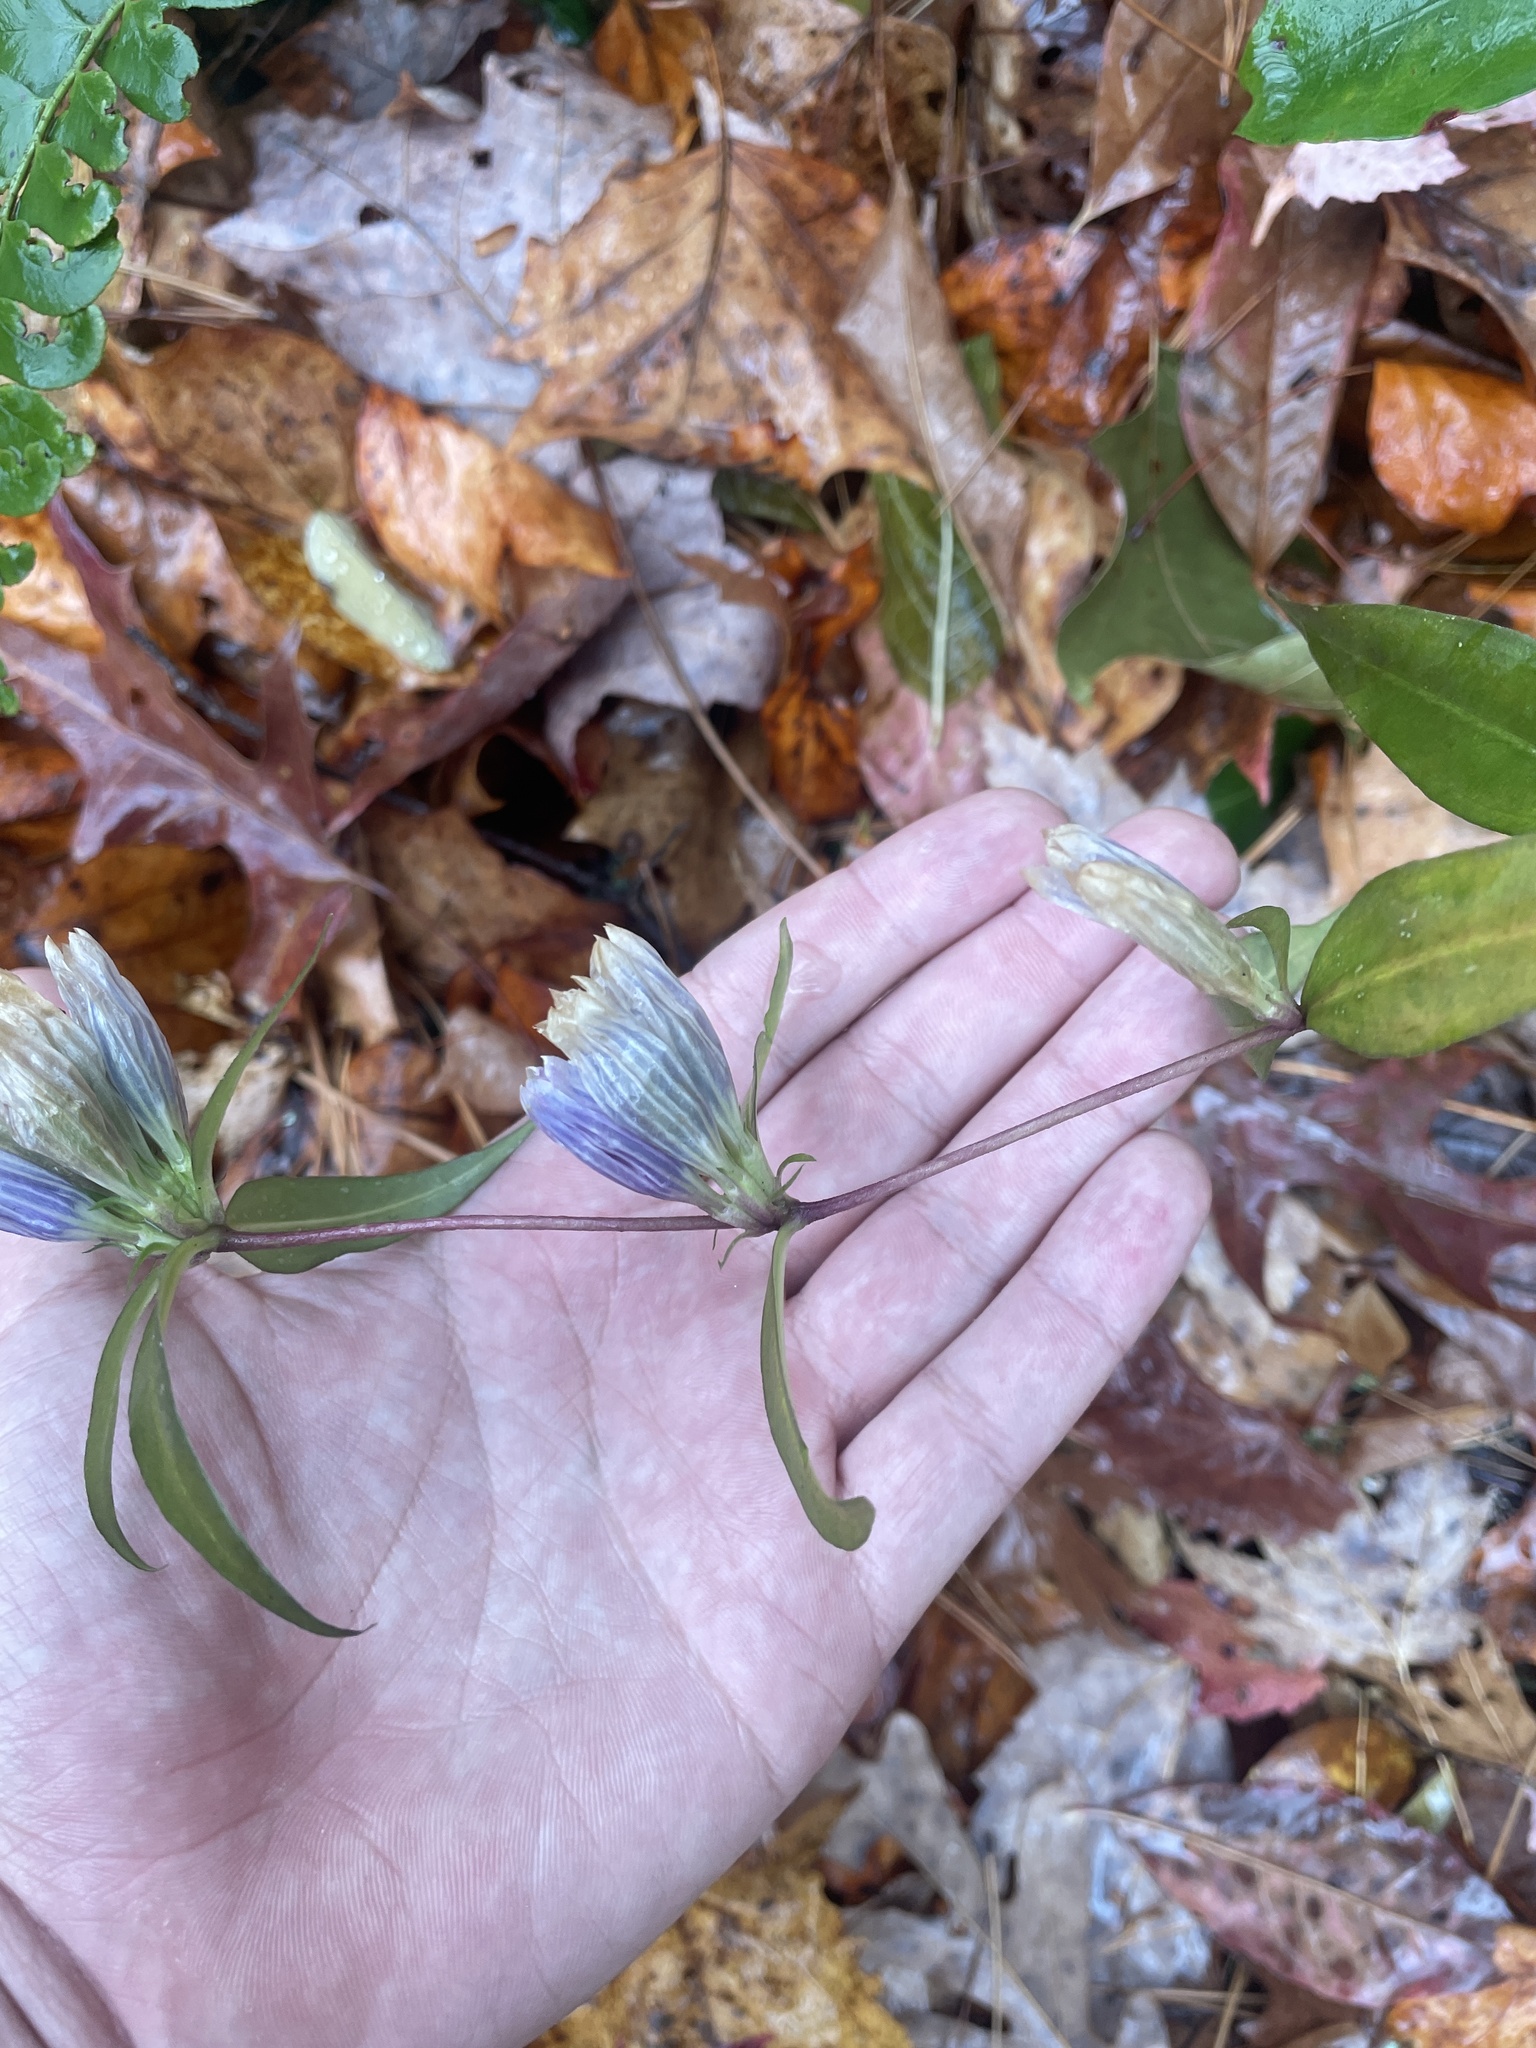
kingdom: Plantae
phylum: Tracheophyta
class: Magnoliopsida
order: Gentianales
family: Gentianaceae
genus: Gentiana
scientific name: Gentiana decora
